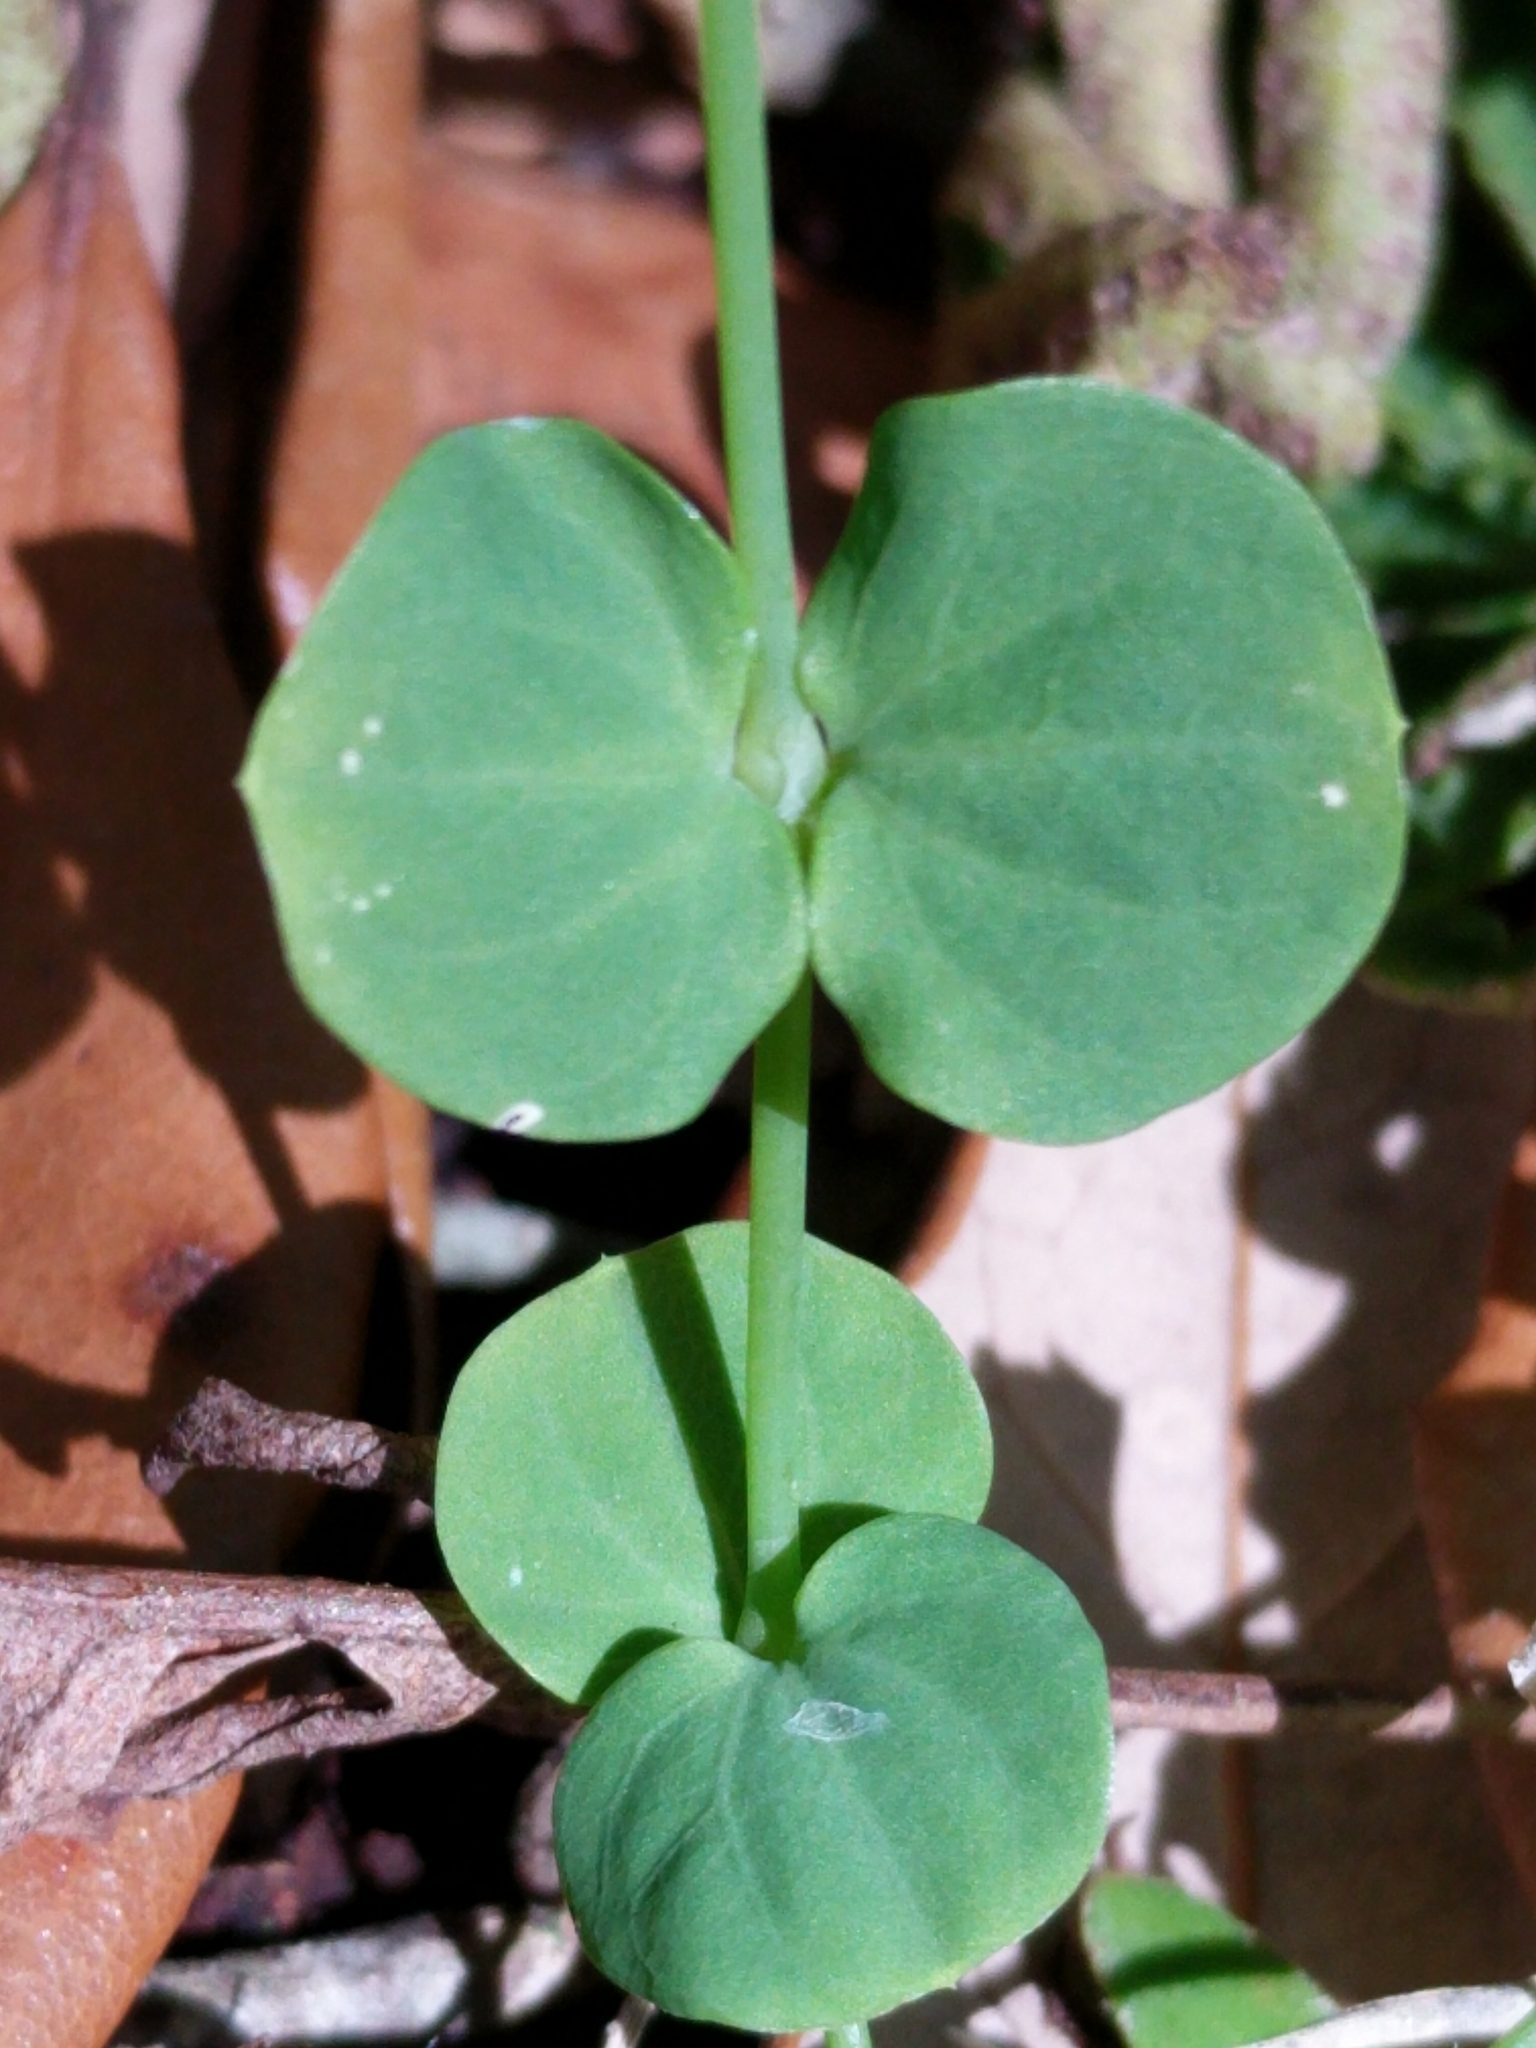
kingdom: Plantae
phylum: Tracheophyta
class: Magnoliopsida
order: Caryophyllales
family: Caryophyllaceae
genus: Drymaria
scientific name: Drymaria cordata
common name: Whitesnow
